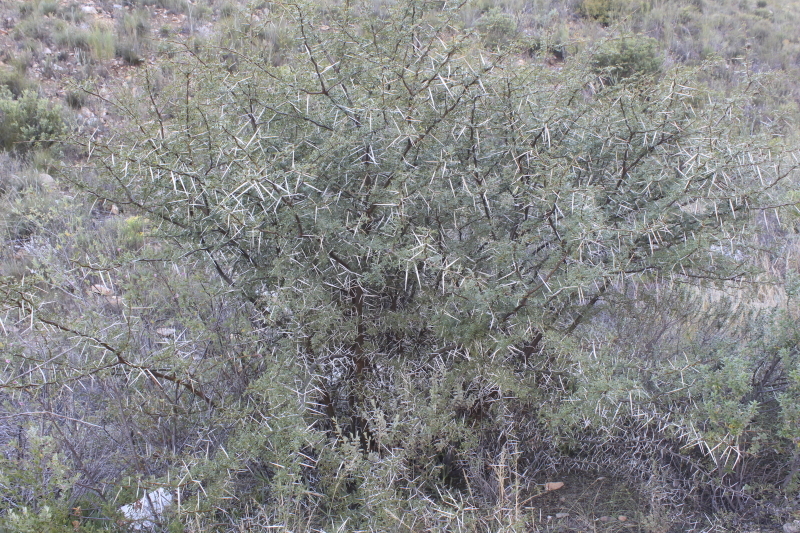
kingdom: Plantae
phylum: Tracheophyta
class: Magnoliopsida
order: Fabales
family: Fabaceae
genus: Vachellia
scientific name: Vachellia karroo
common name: Sweet thorn
